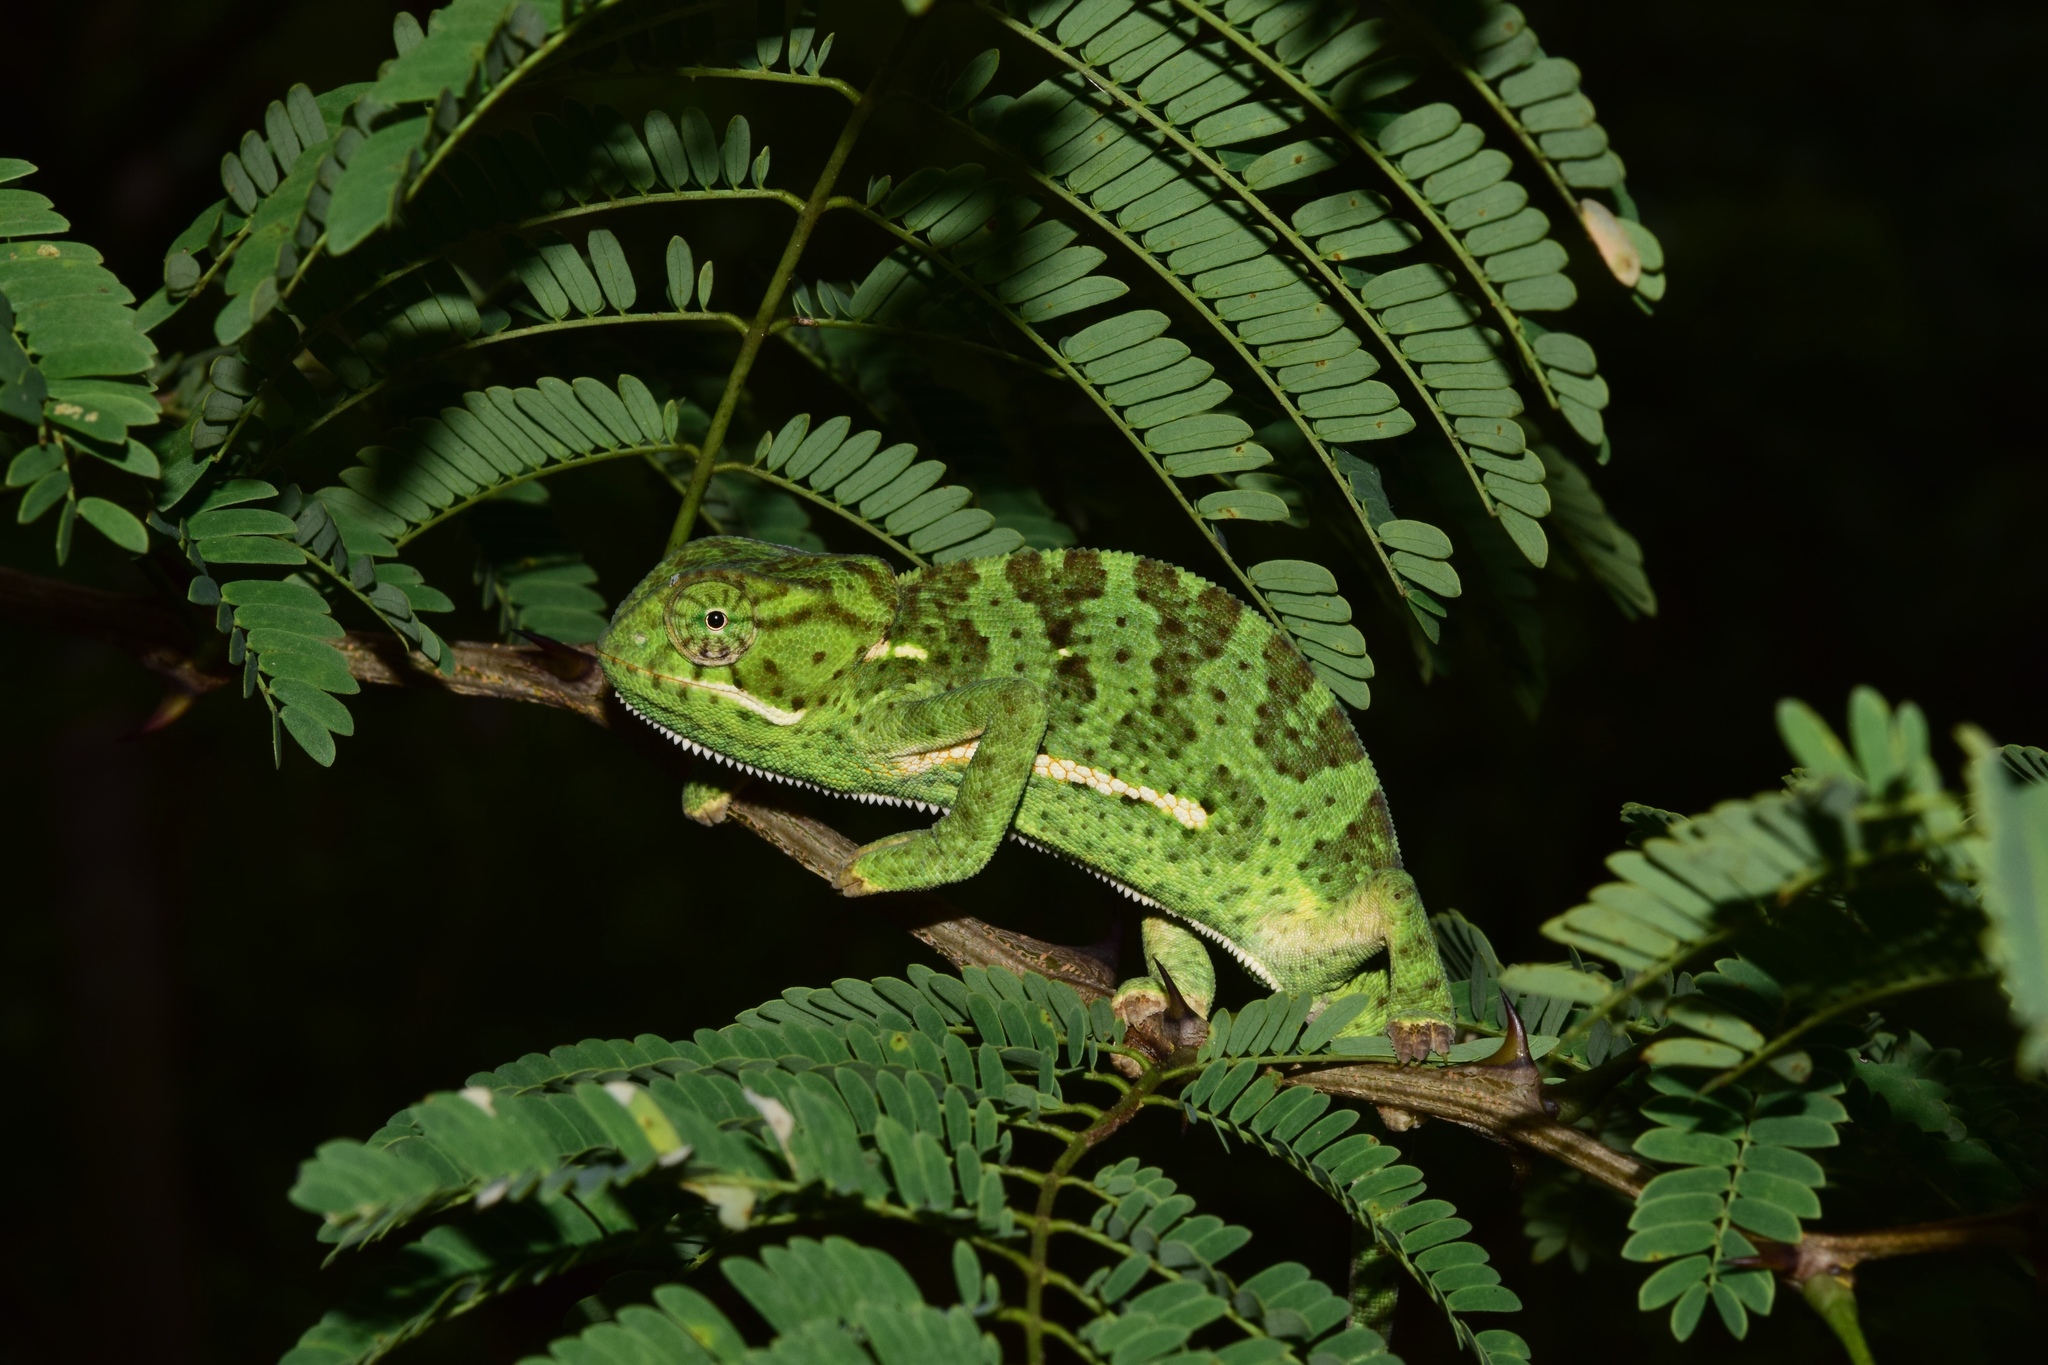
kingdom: Animalia
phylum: Chordata
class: Squamata
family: Chamaeleonidae
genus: Chamaeleo
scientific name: Chamaeleo dilepis
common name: Flapneck chameleon
